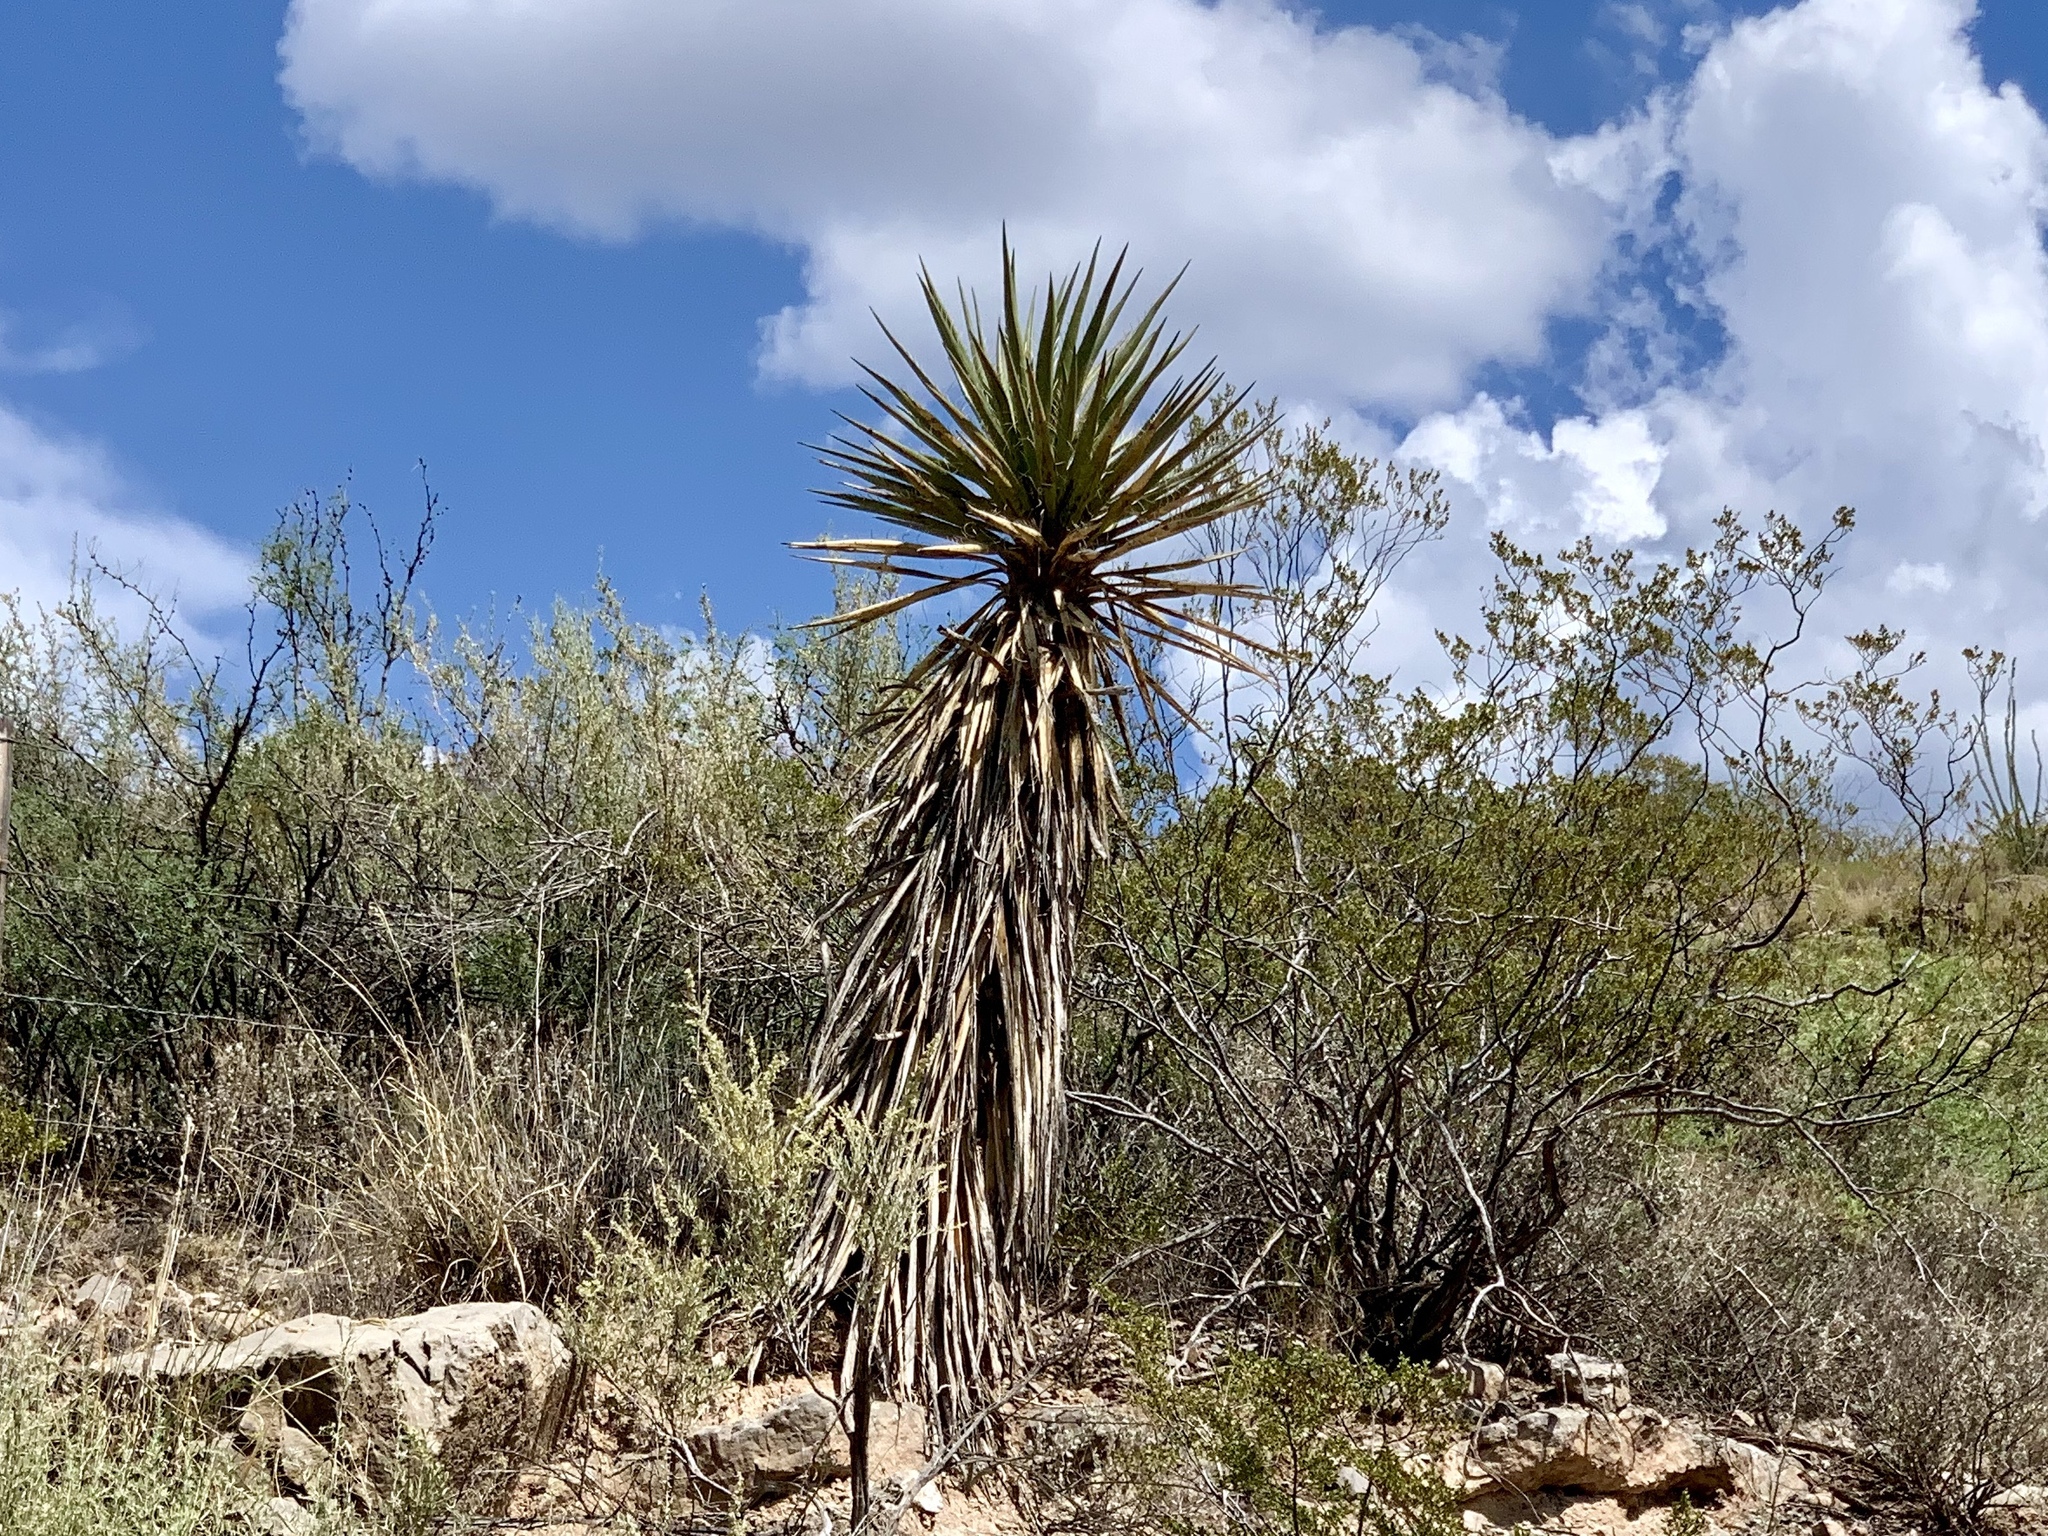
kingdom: Plantae
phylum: Tracheophyta
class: Liliopsida
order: Asparagales
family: Asparagaceae
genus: Yucca
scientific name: Yucca treculiana
